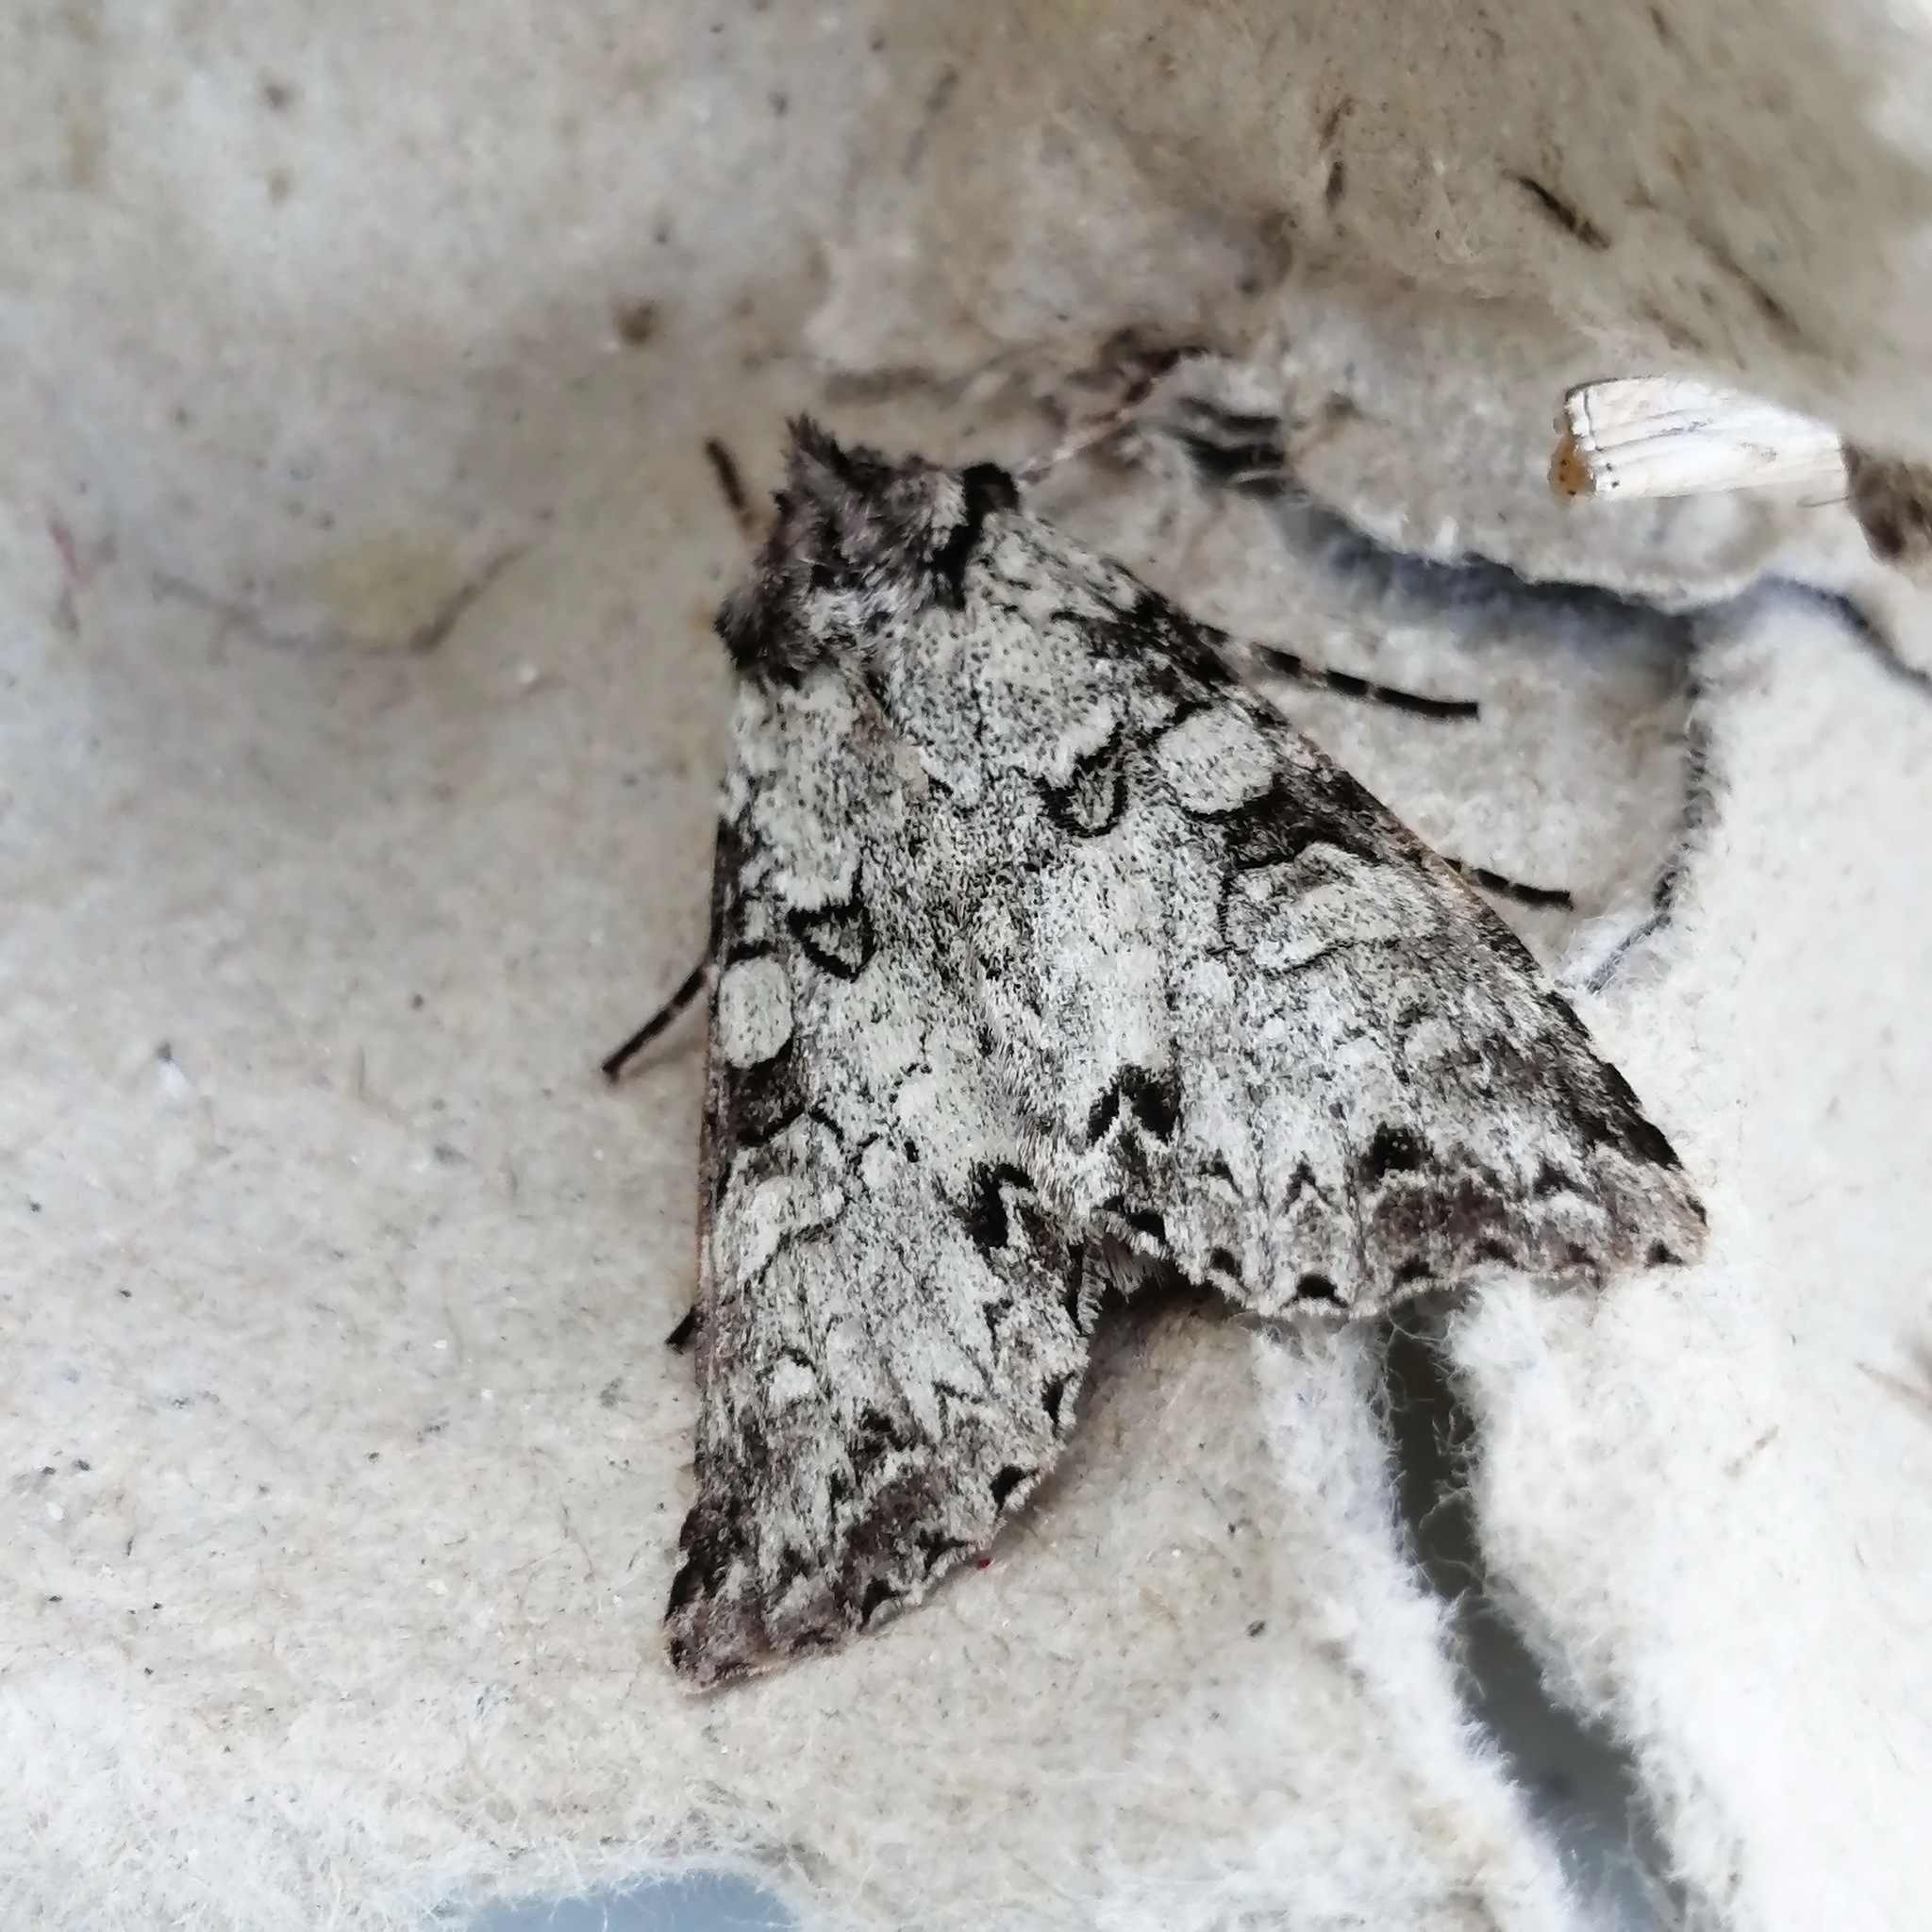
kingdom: Animalia
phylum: Arthropoda
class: Insecta
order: Lepidoptera
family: Noctuidae
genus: Polia
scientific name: Polia nimbosa
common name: Stormy arches
